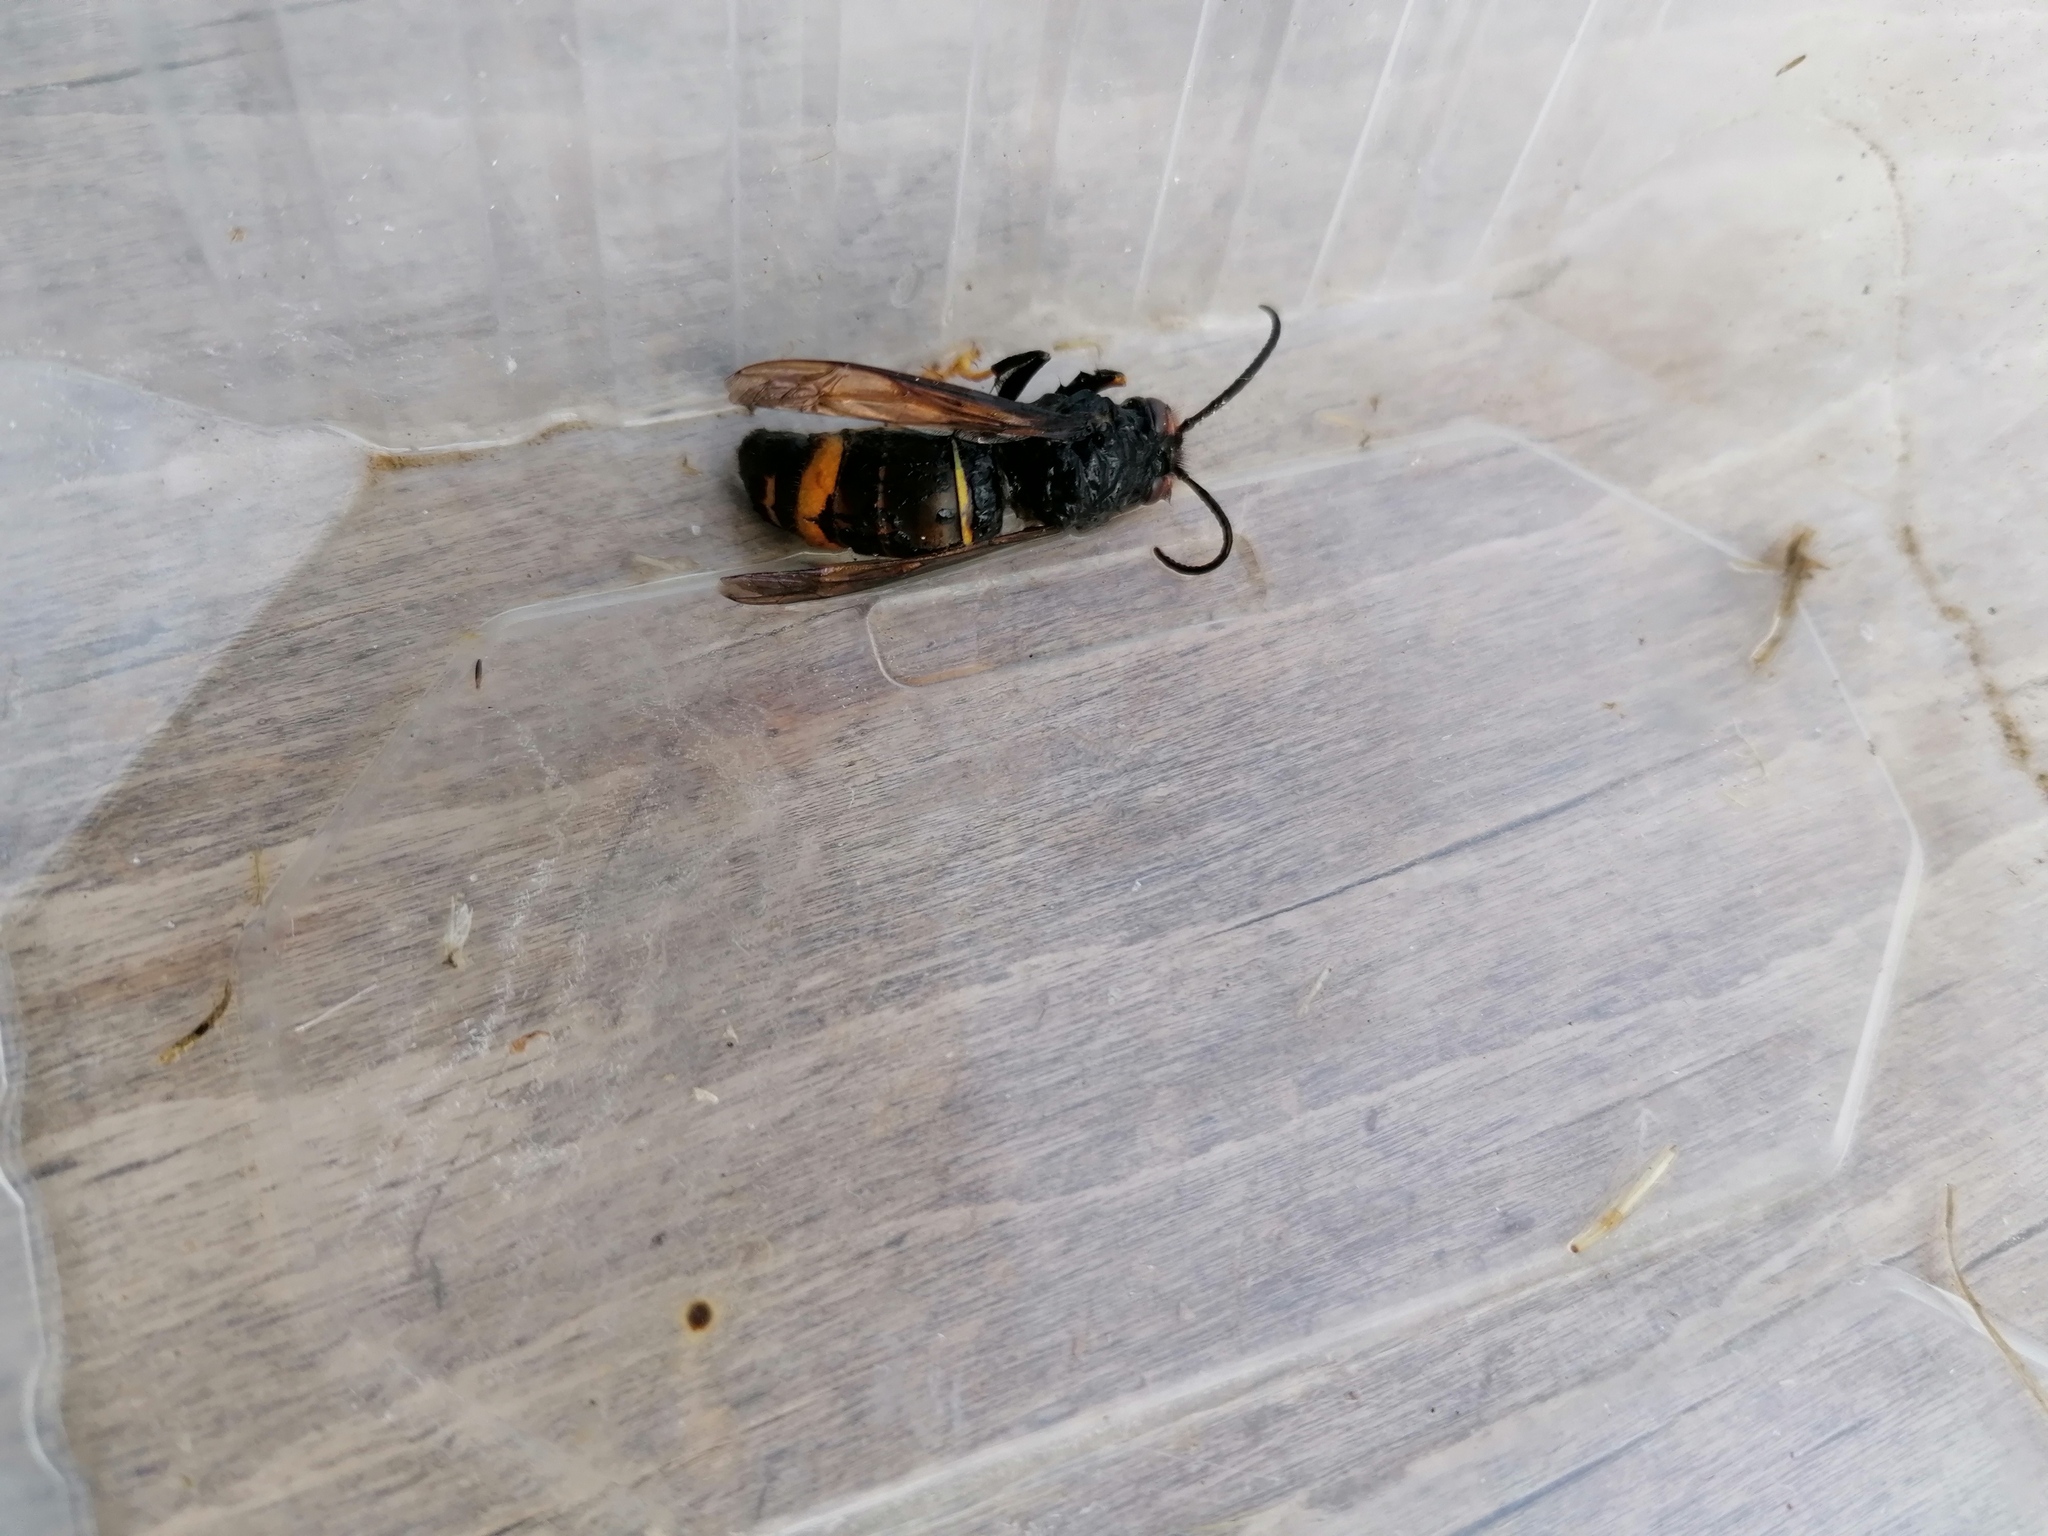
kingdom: Animalia
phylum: Arthropoda
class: Insecta
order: Hymenoptera
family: Vespidae
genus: Vespa
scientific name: Vespa velutina
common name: Asian hornet
